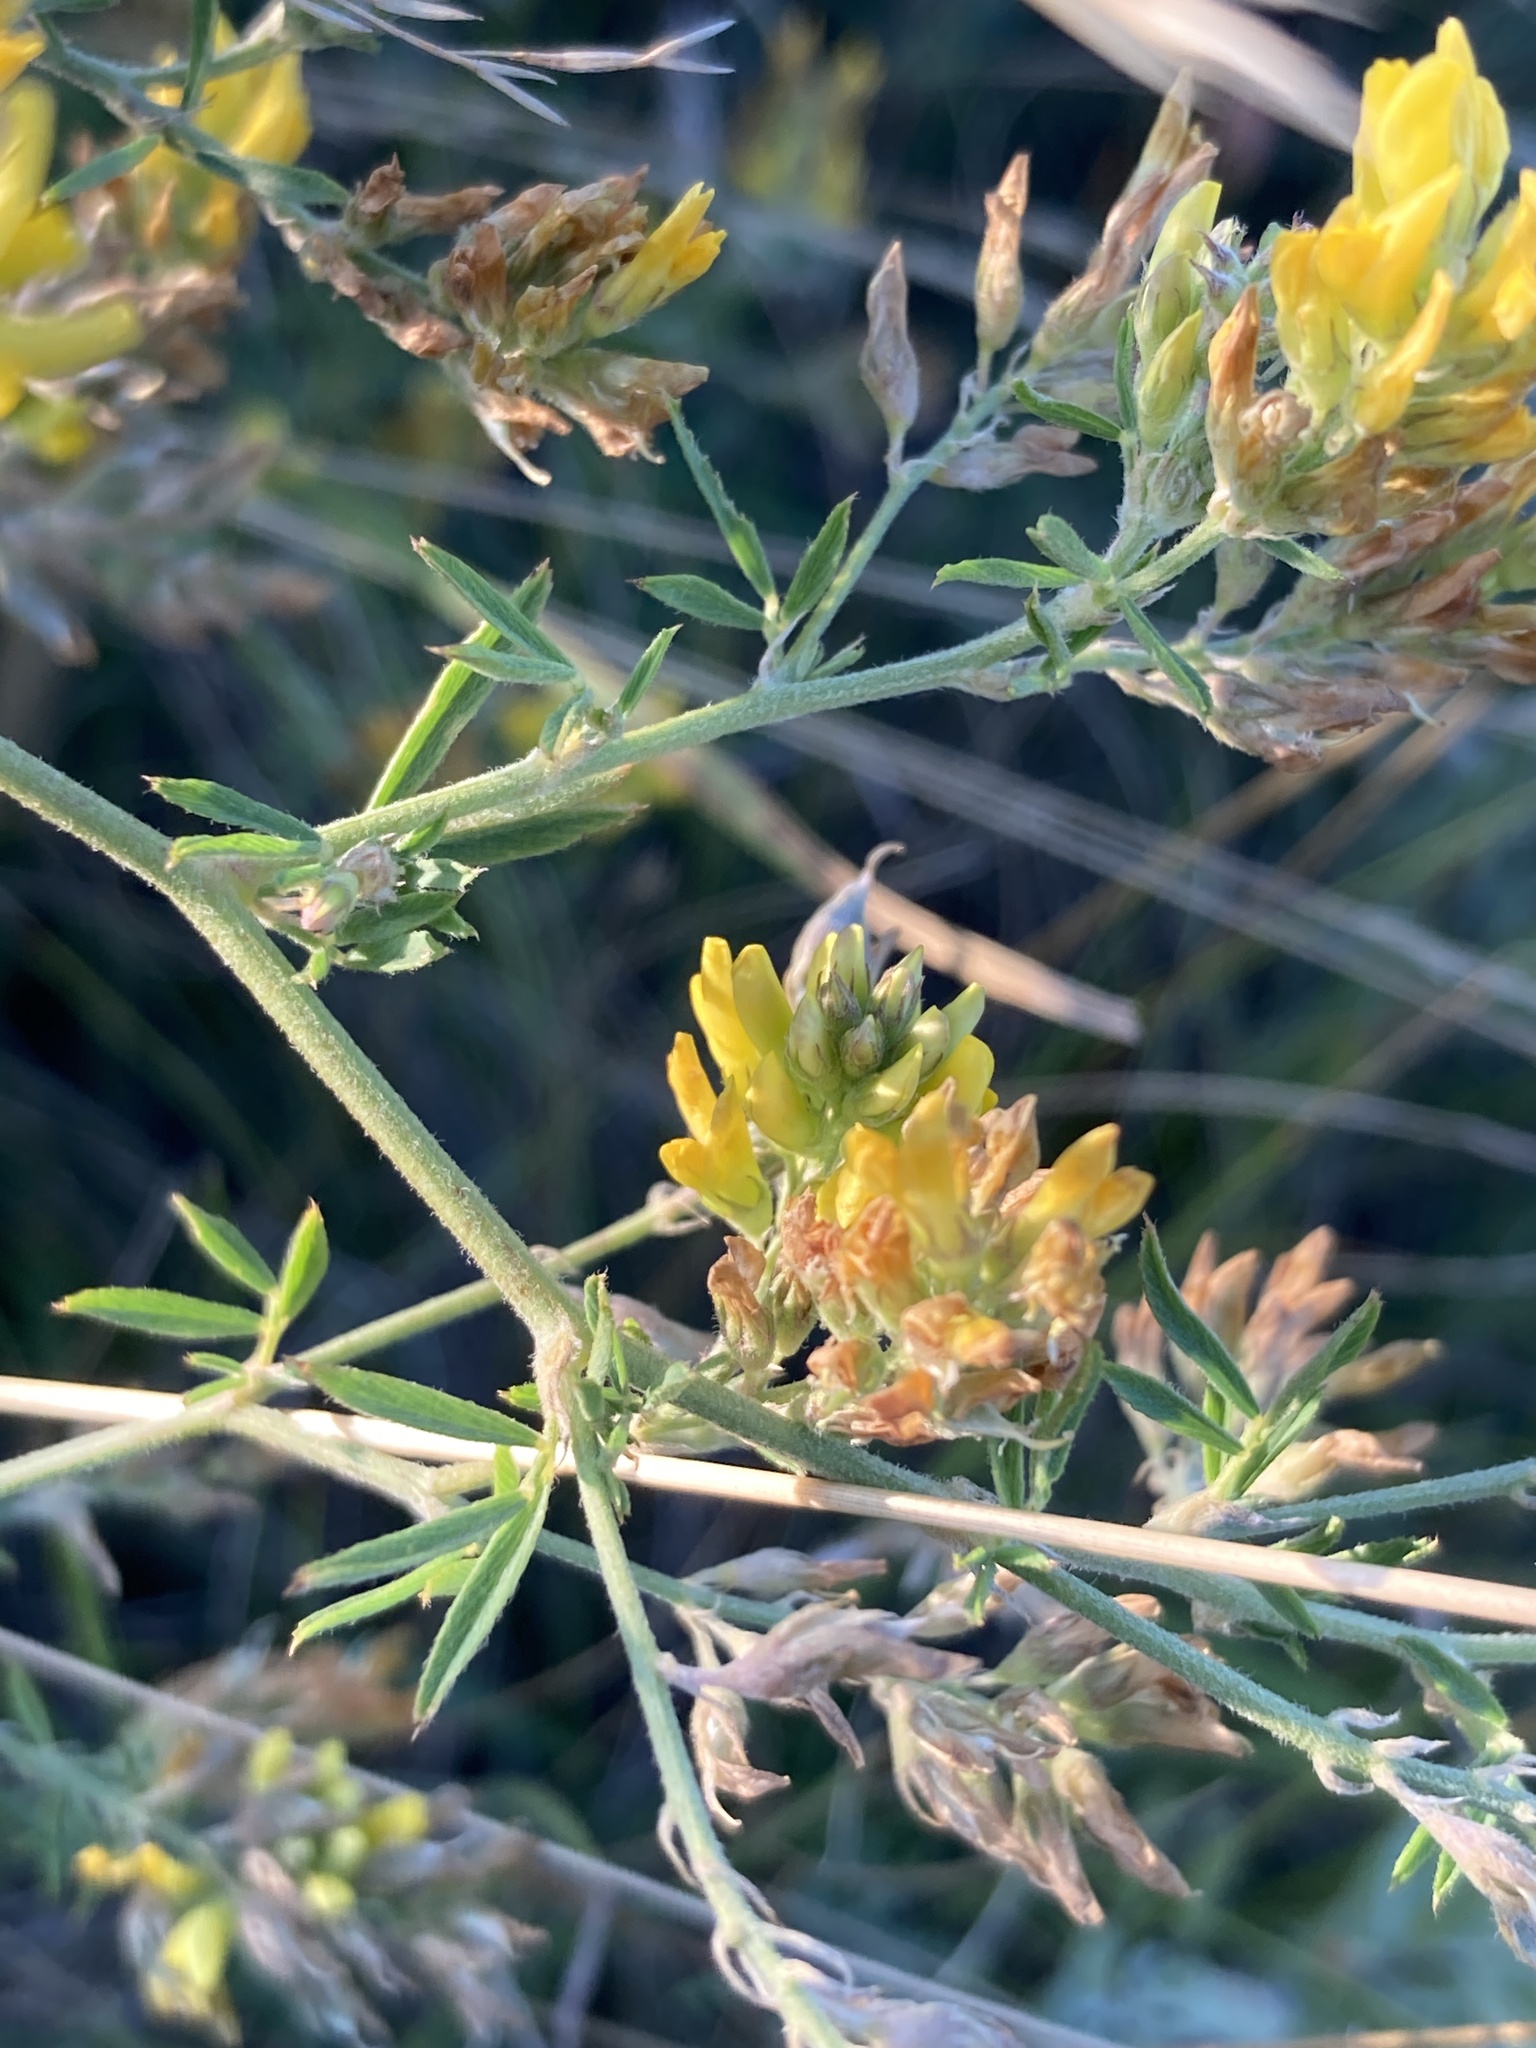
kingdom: Plantae
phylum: Tracheophyta
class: Magnoliopsida
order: Fabales
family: Fabaceae
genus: Medicago
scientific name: Medicago falcata
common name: Sickle medick
